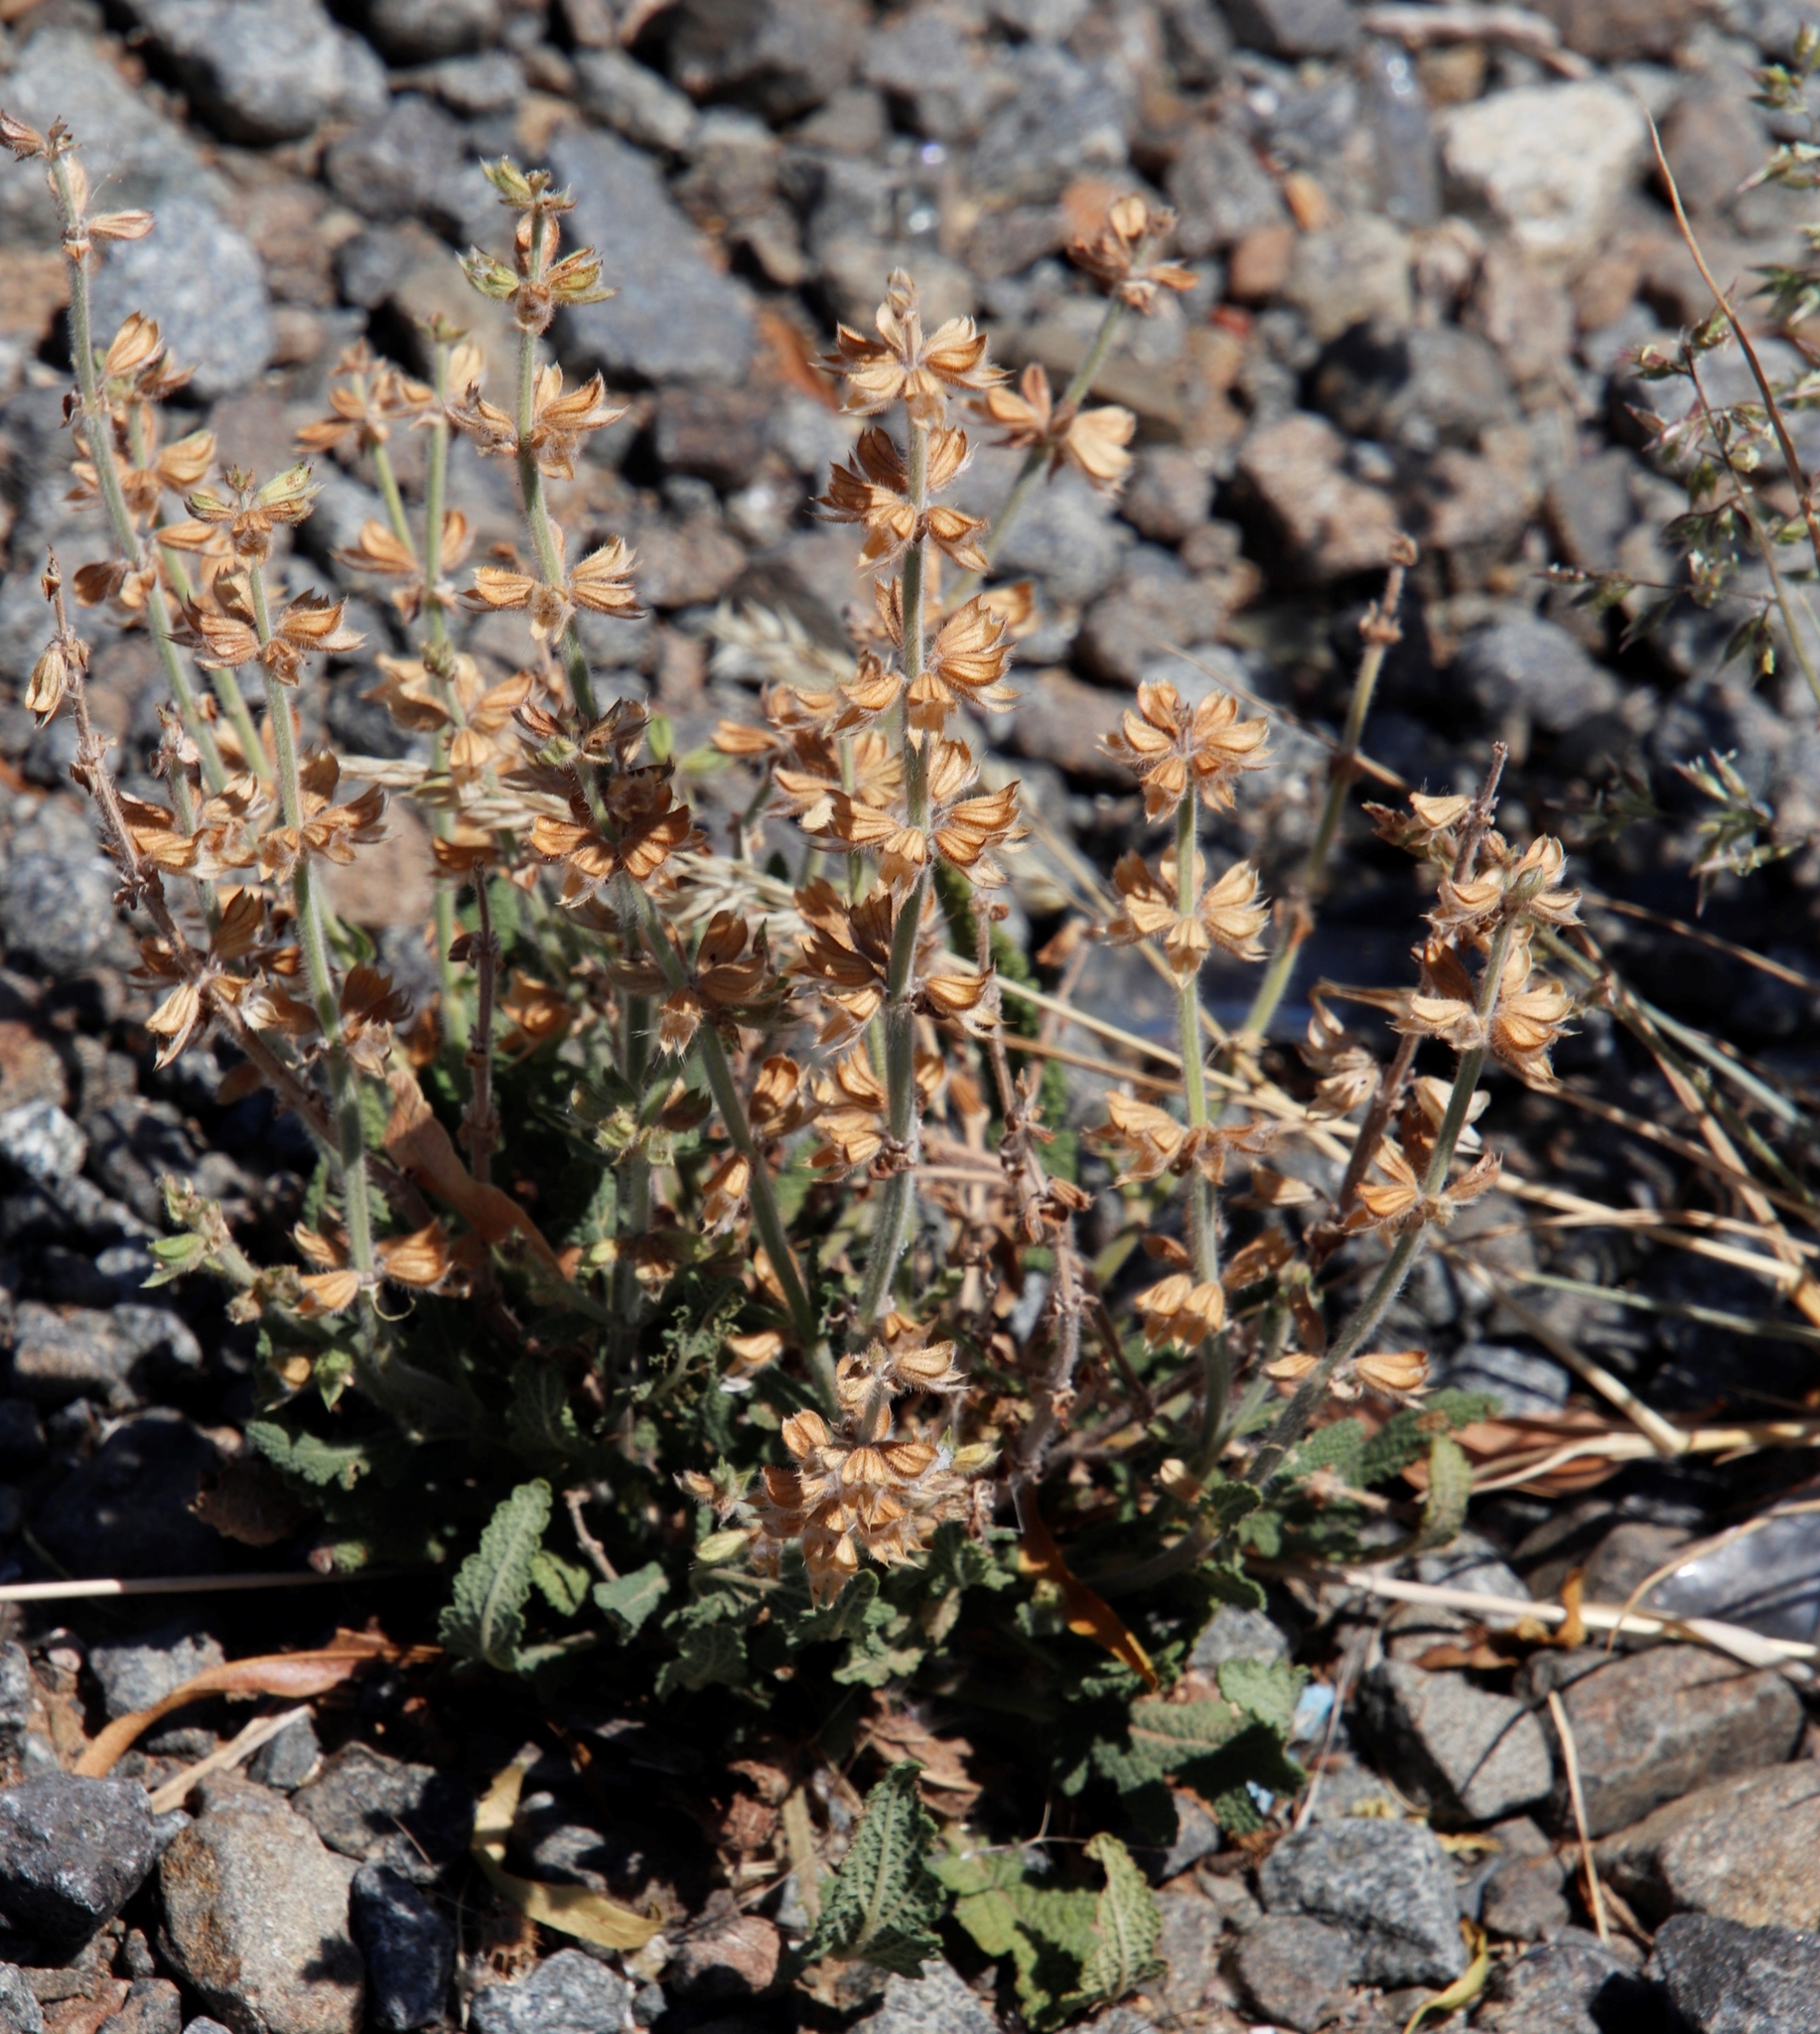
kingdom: Plantae
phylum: Tracheophyta
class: Magnoliopsida
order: Lamiales
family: Lamiaceae
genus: Salvia
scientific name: Salvia verbenaca
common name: Wild clary
